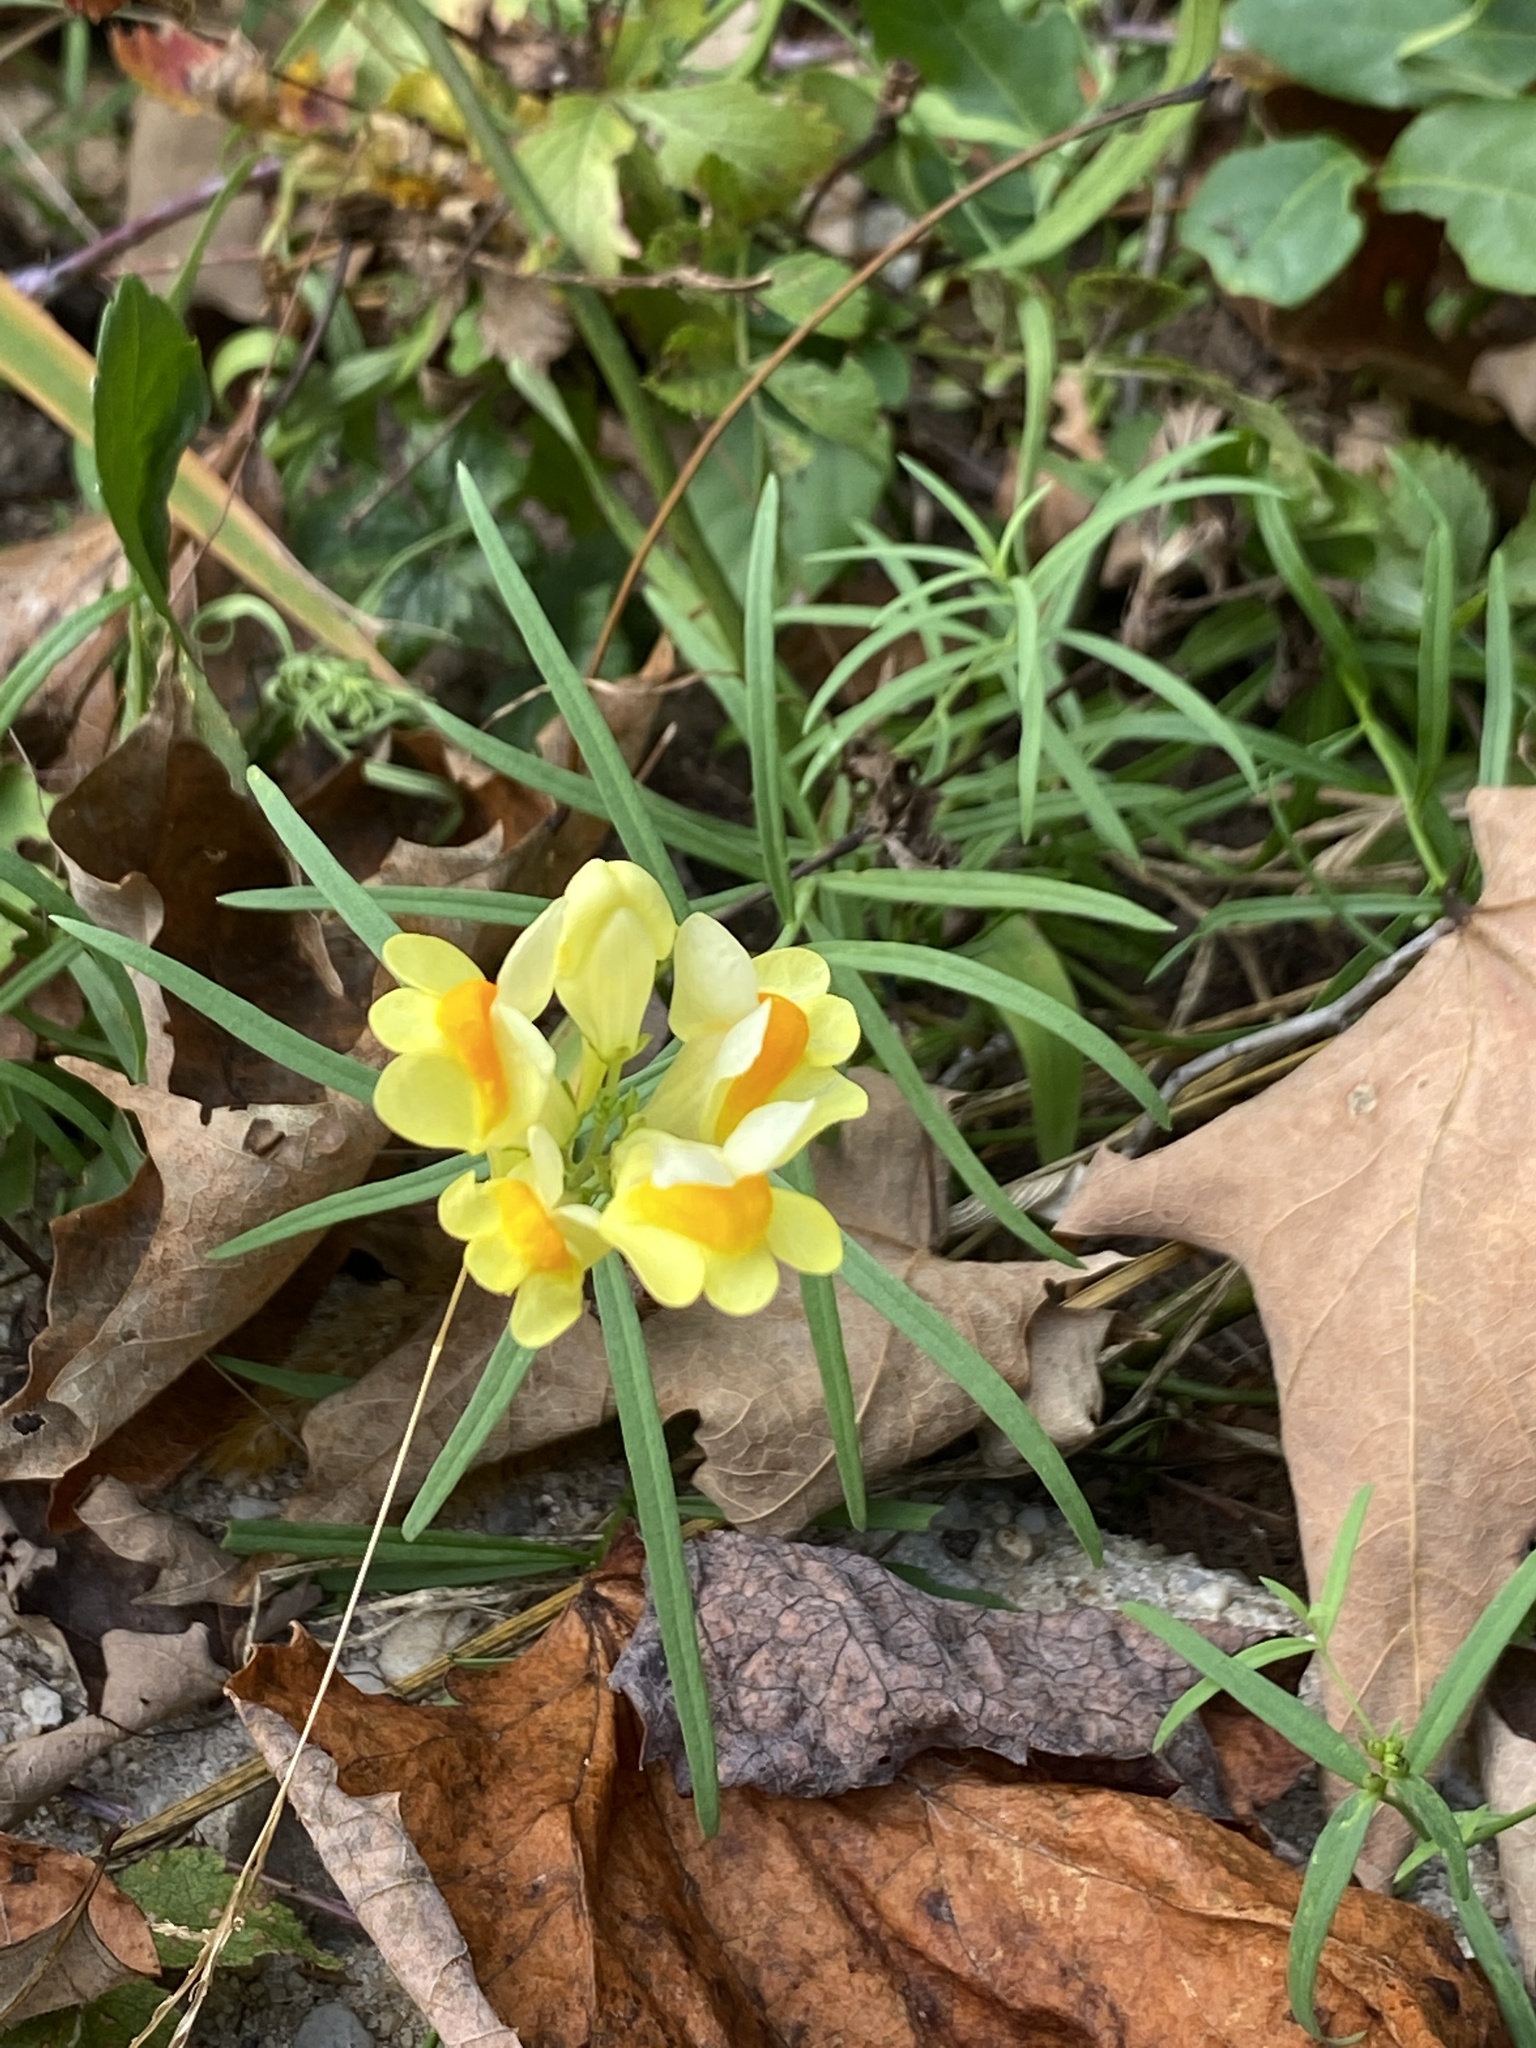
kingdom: Plantae
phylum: Tracheophyta
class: Magnoliopsida
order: Lamiales
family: Plantaginaceae
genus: Linaria
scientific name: Linaria vulgaris
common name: Butter and eggs
